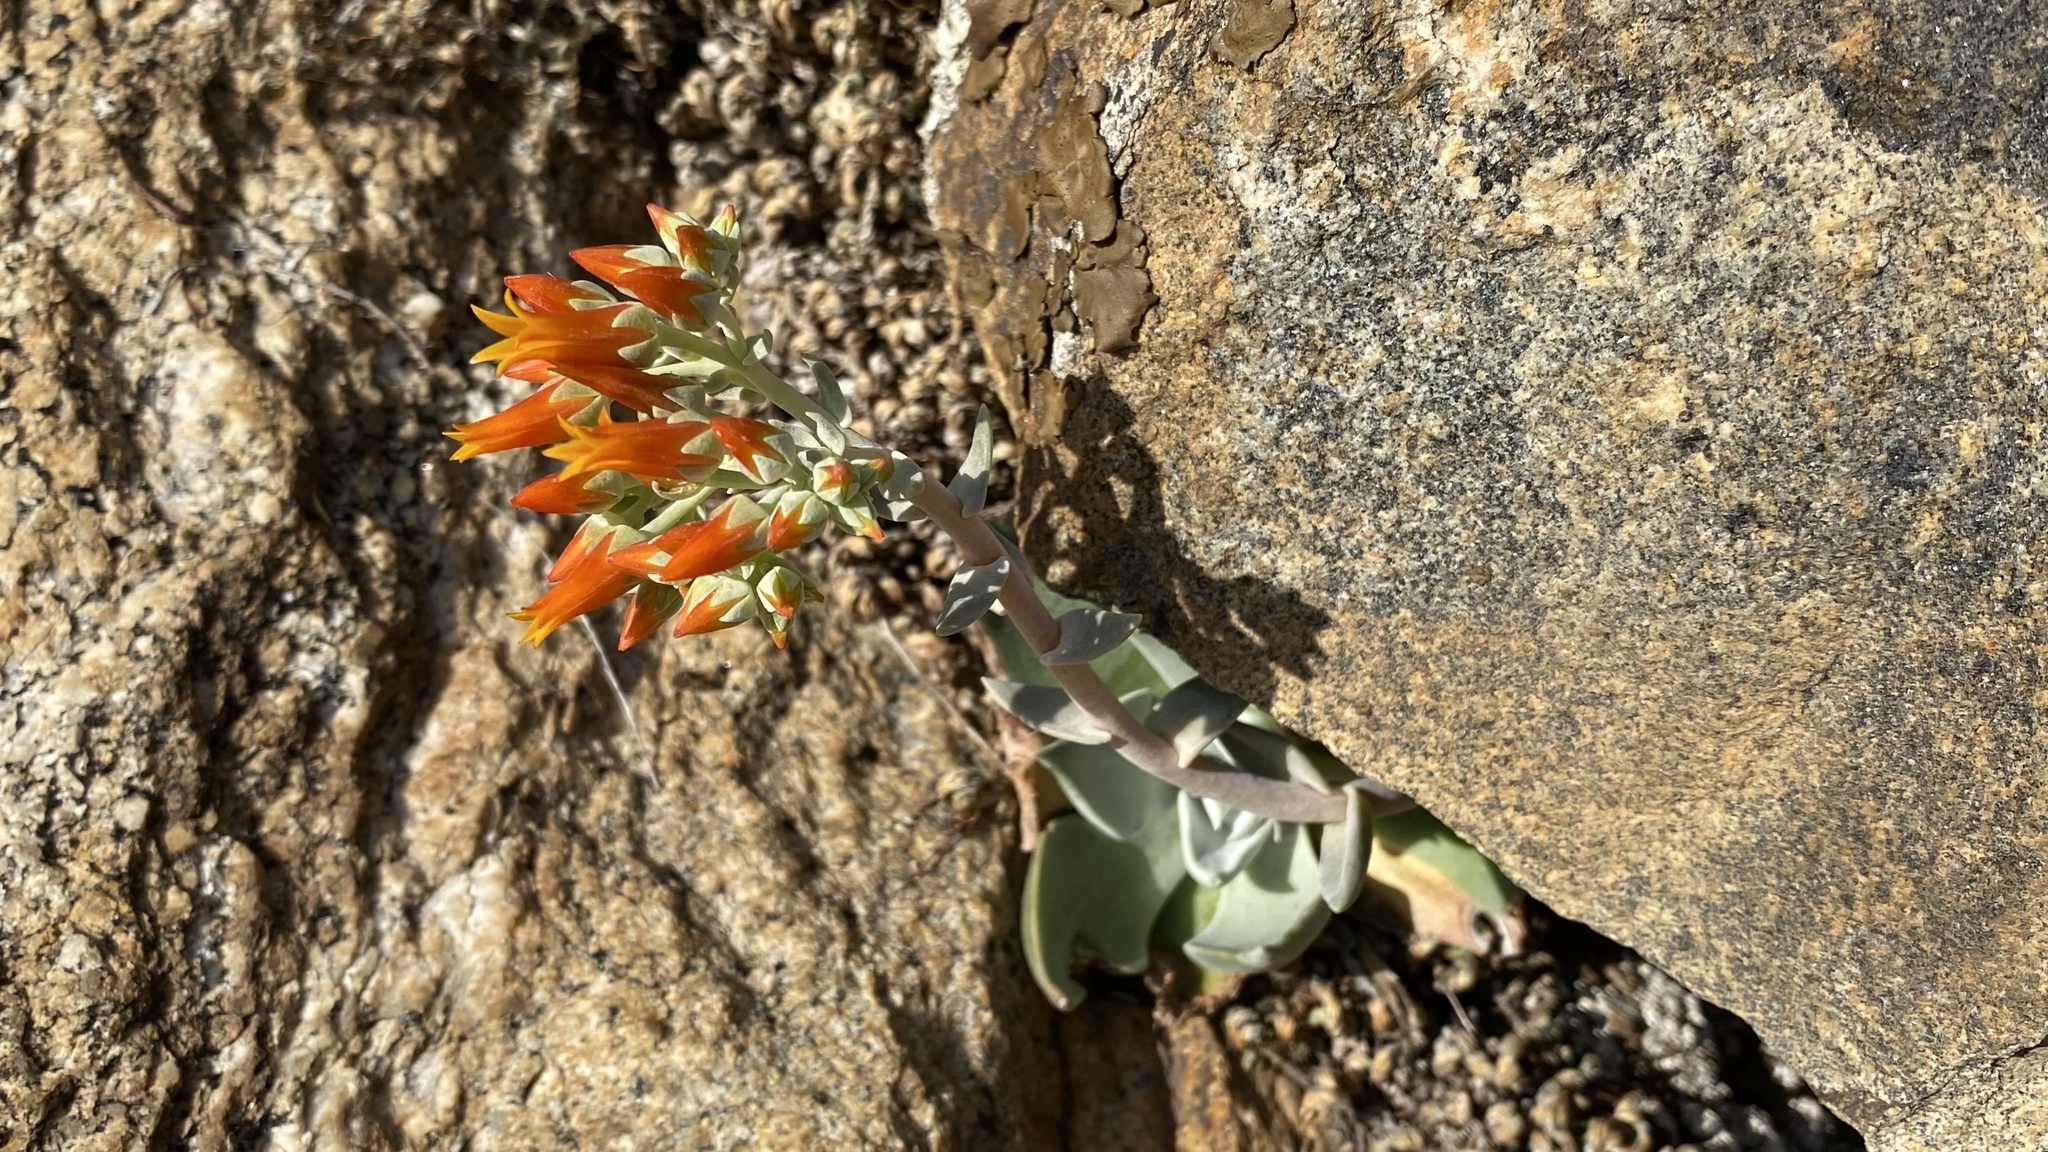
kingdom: Plantae
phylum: Tracheophyta
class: Magnoliopsida
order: Saxifragales
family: Crassulaceae
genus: Dudleya
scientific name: Dudleya cymosa
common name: Canyon dudleya
